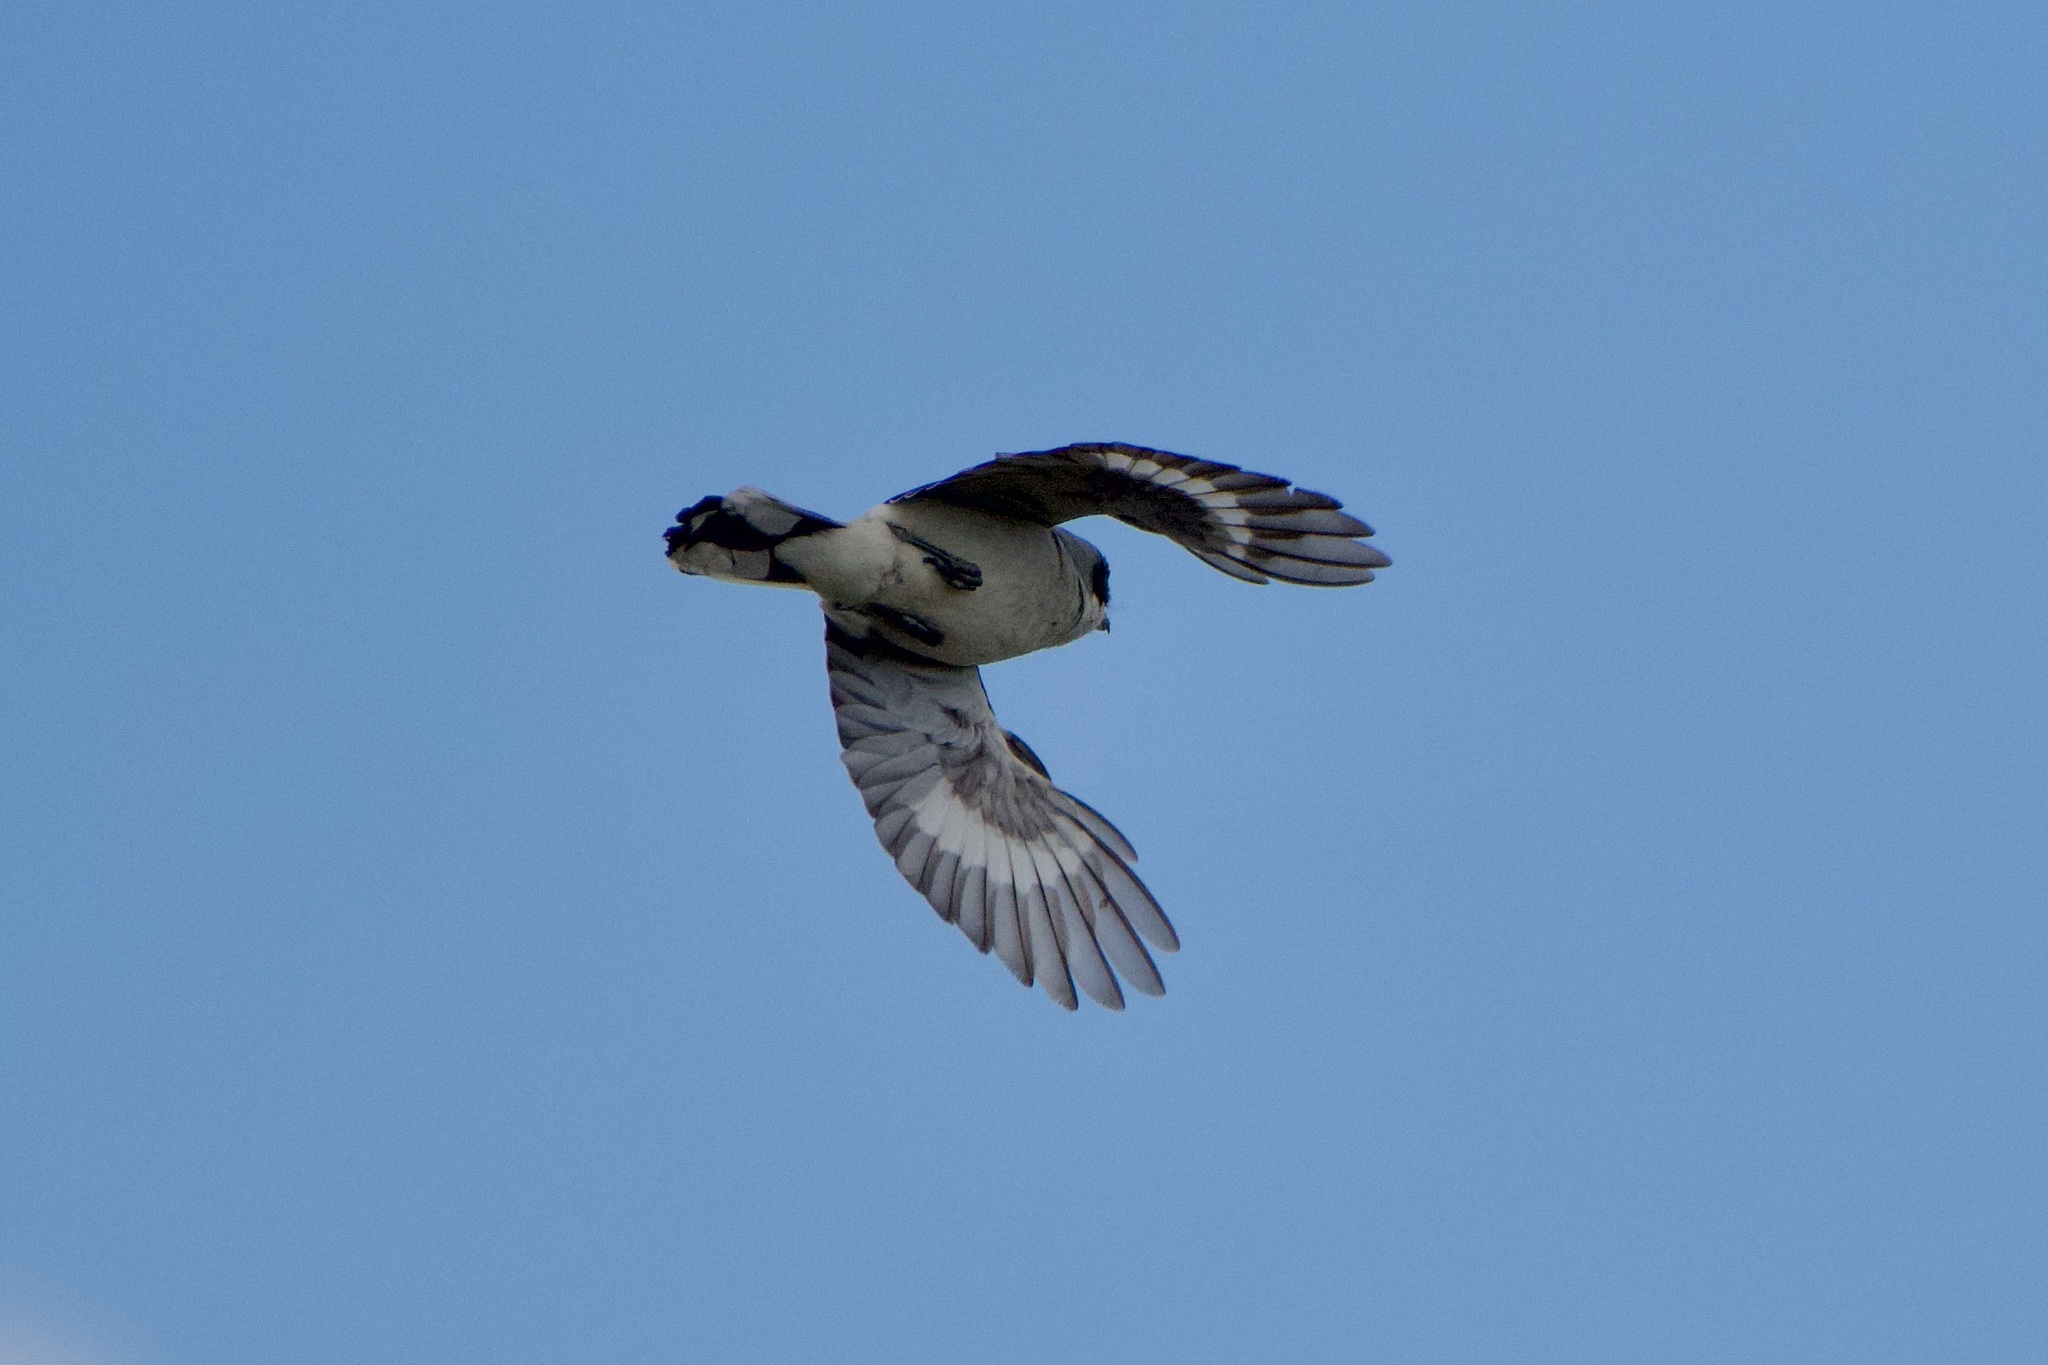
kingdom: Animalia
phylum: Chordata
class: Aves
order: Passeriformes
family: Laniidae
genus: Lanius
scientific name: Lanius ludovicianus
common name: Loggerhead shrike
